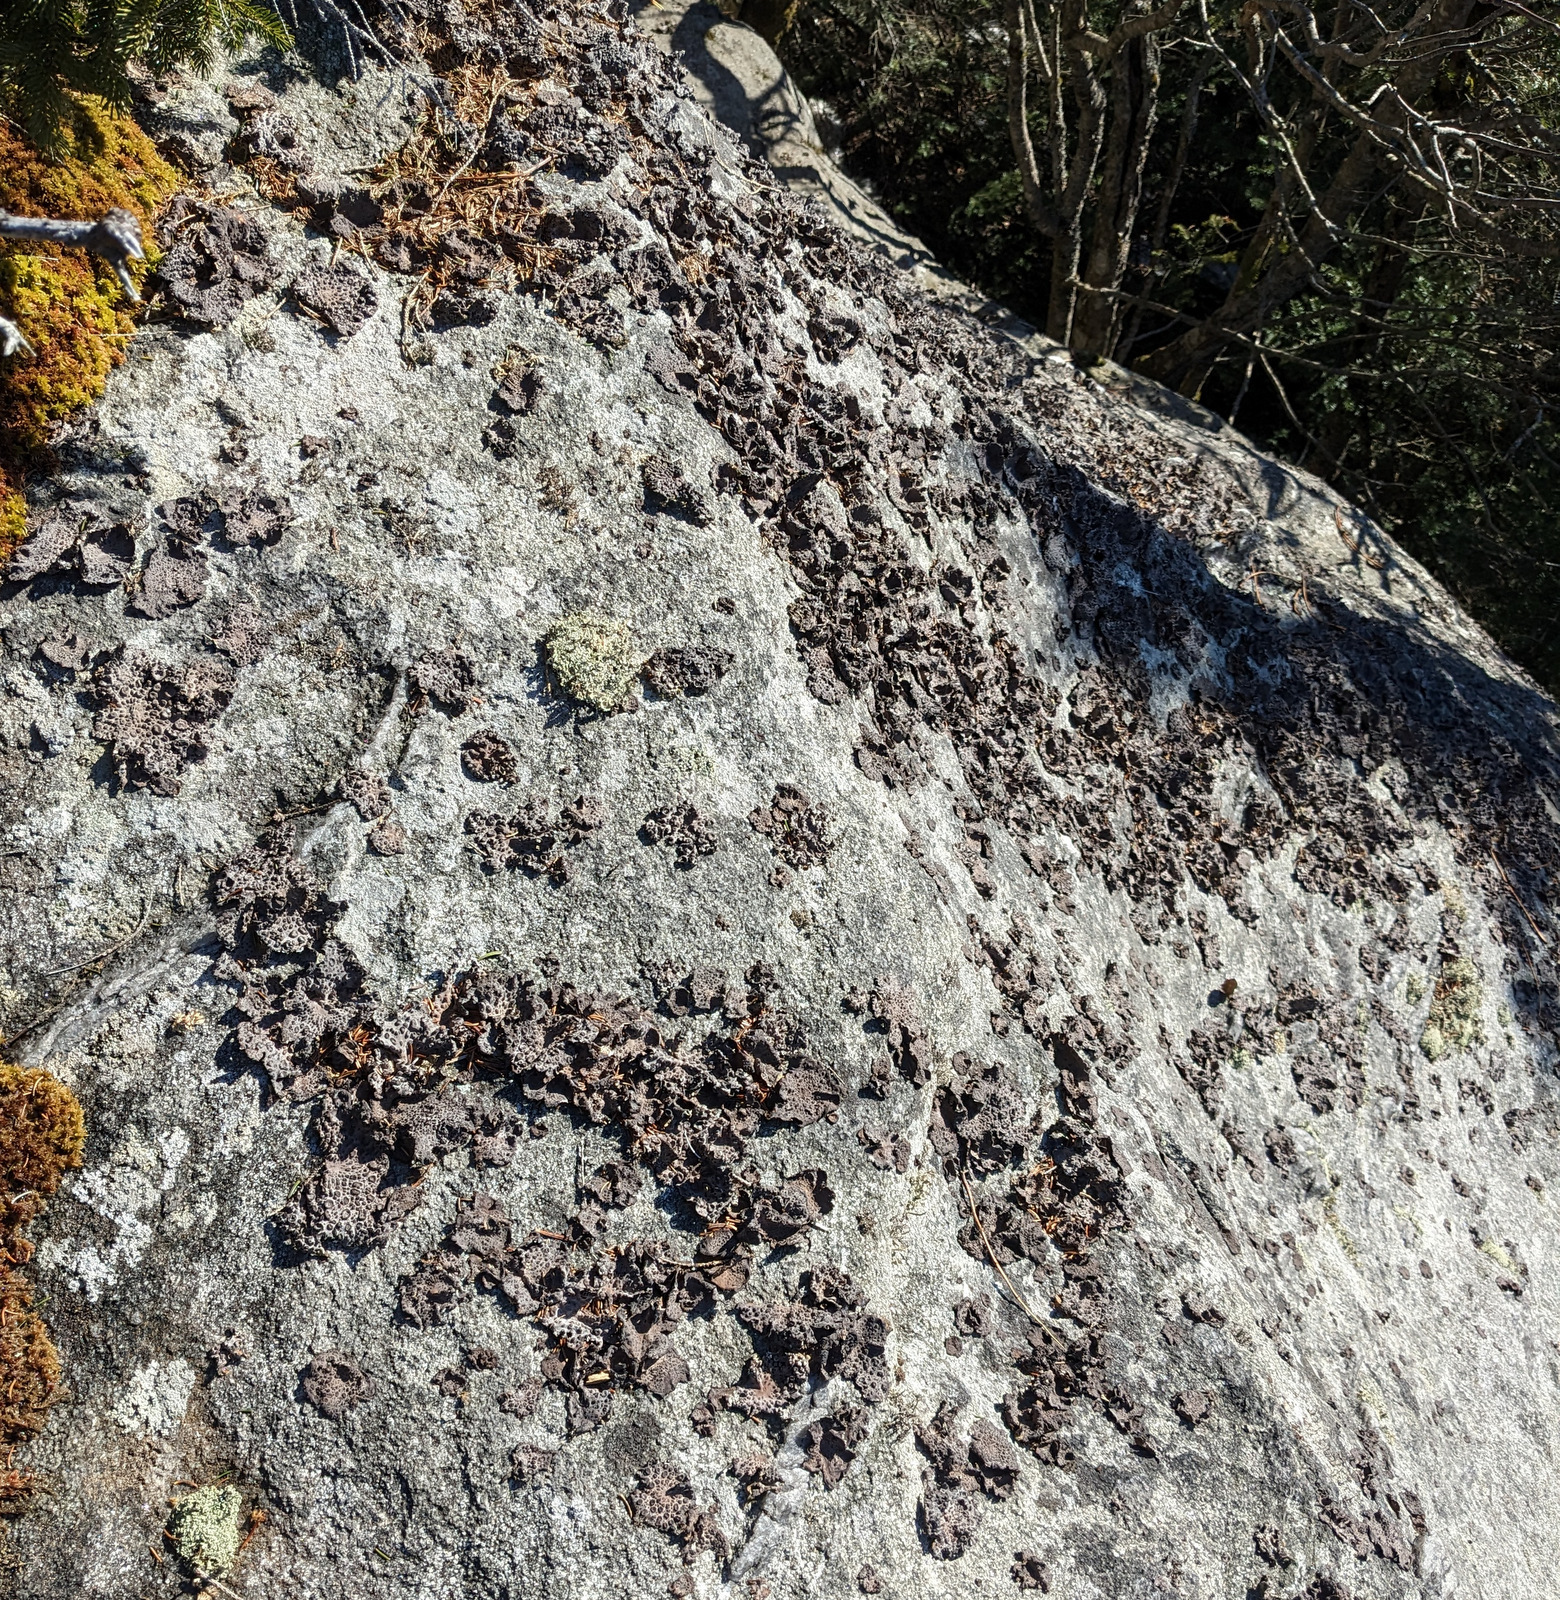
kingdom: Fungi
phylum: Ascomycota
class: Lecanoromycetes
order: Umbilicariales
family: Umbilicariaceae
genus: Lasallia
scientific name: Lasallia papulosa
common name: Common toadskin lichen
